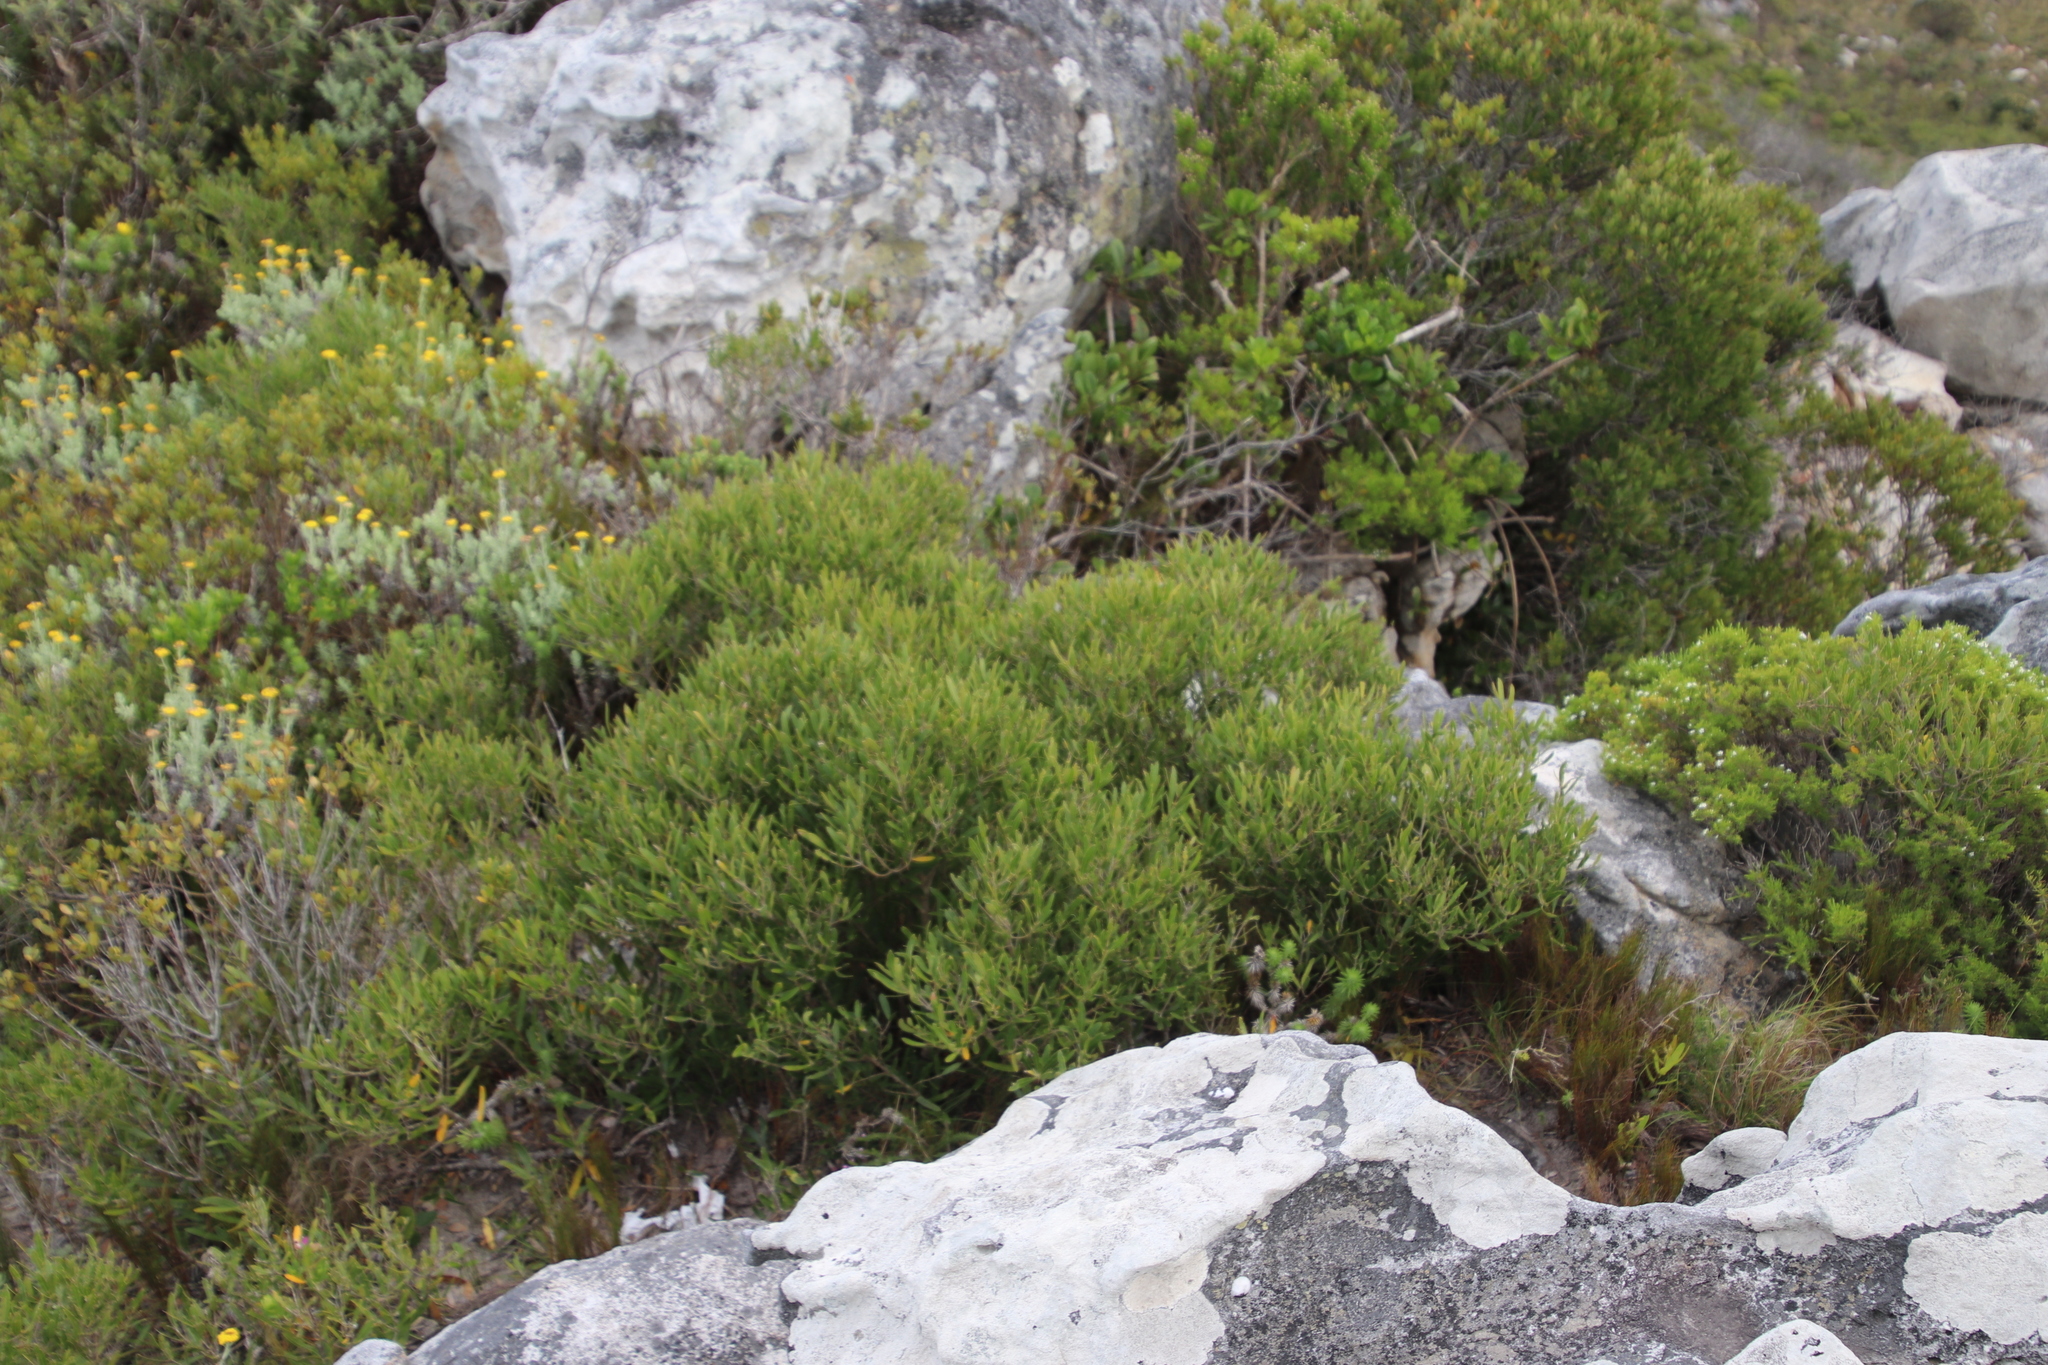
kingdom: Plantae
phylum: Tracheophyta
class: Magnoliopsida
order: Lamiales
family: Oleaceae
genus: Olea
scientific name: Olea exasperata
